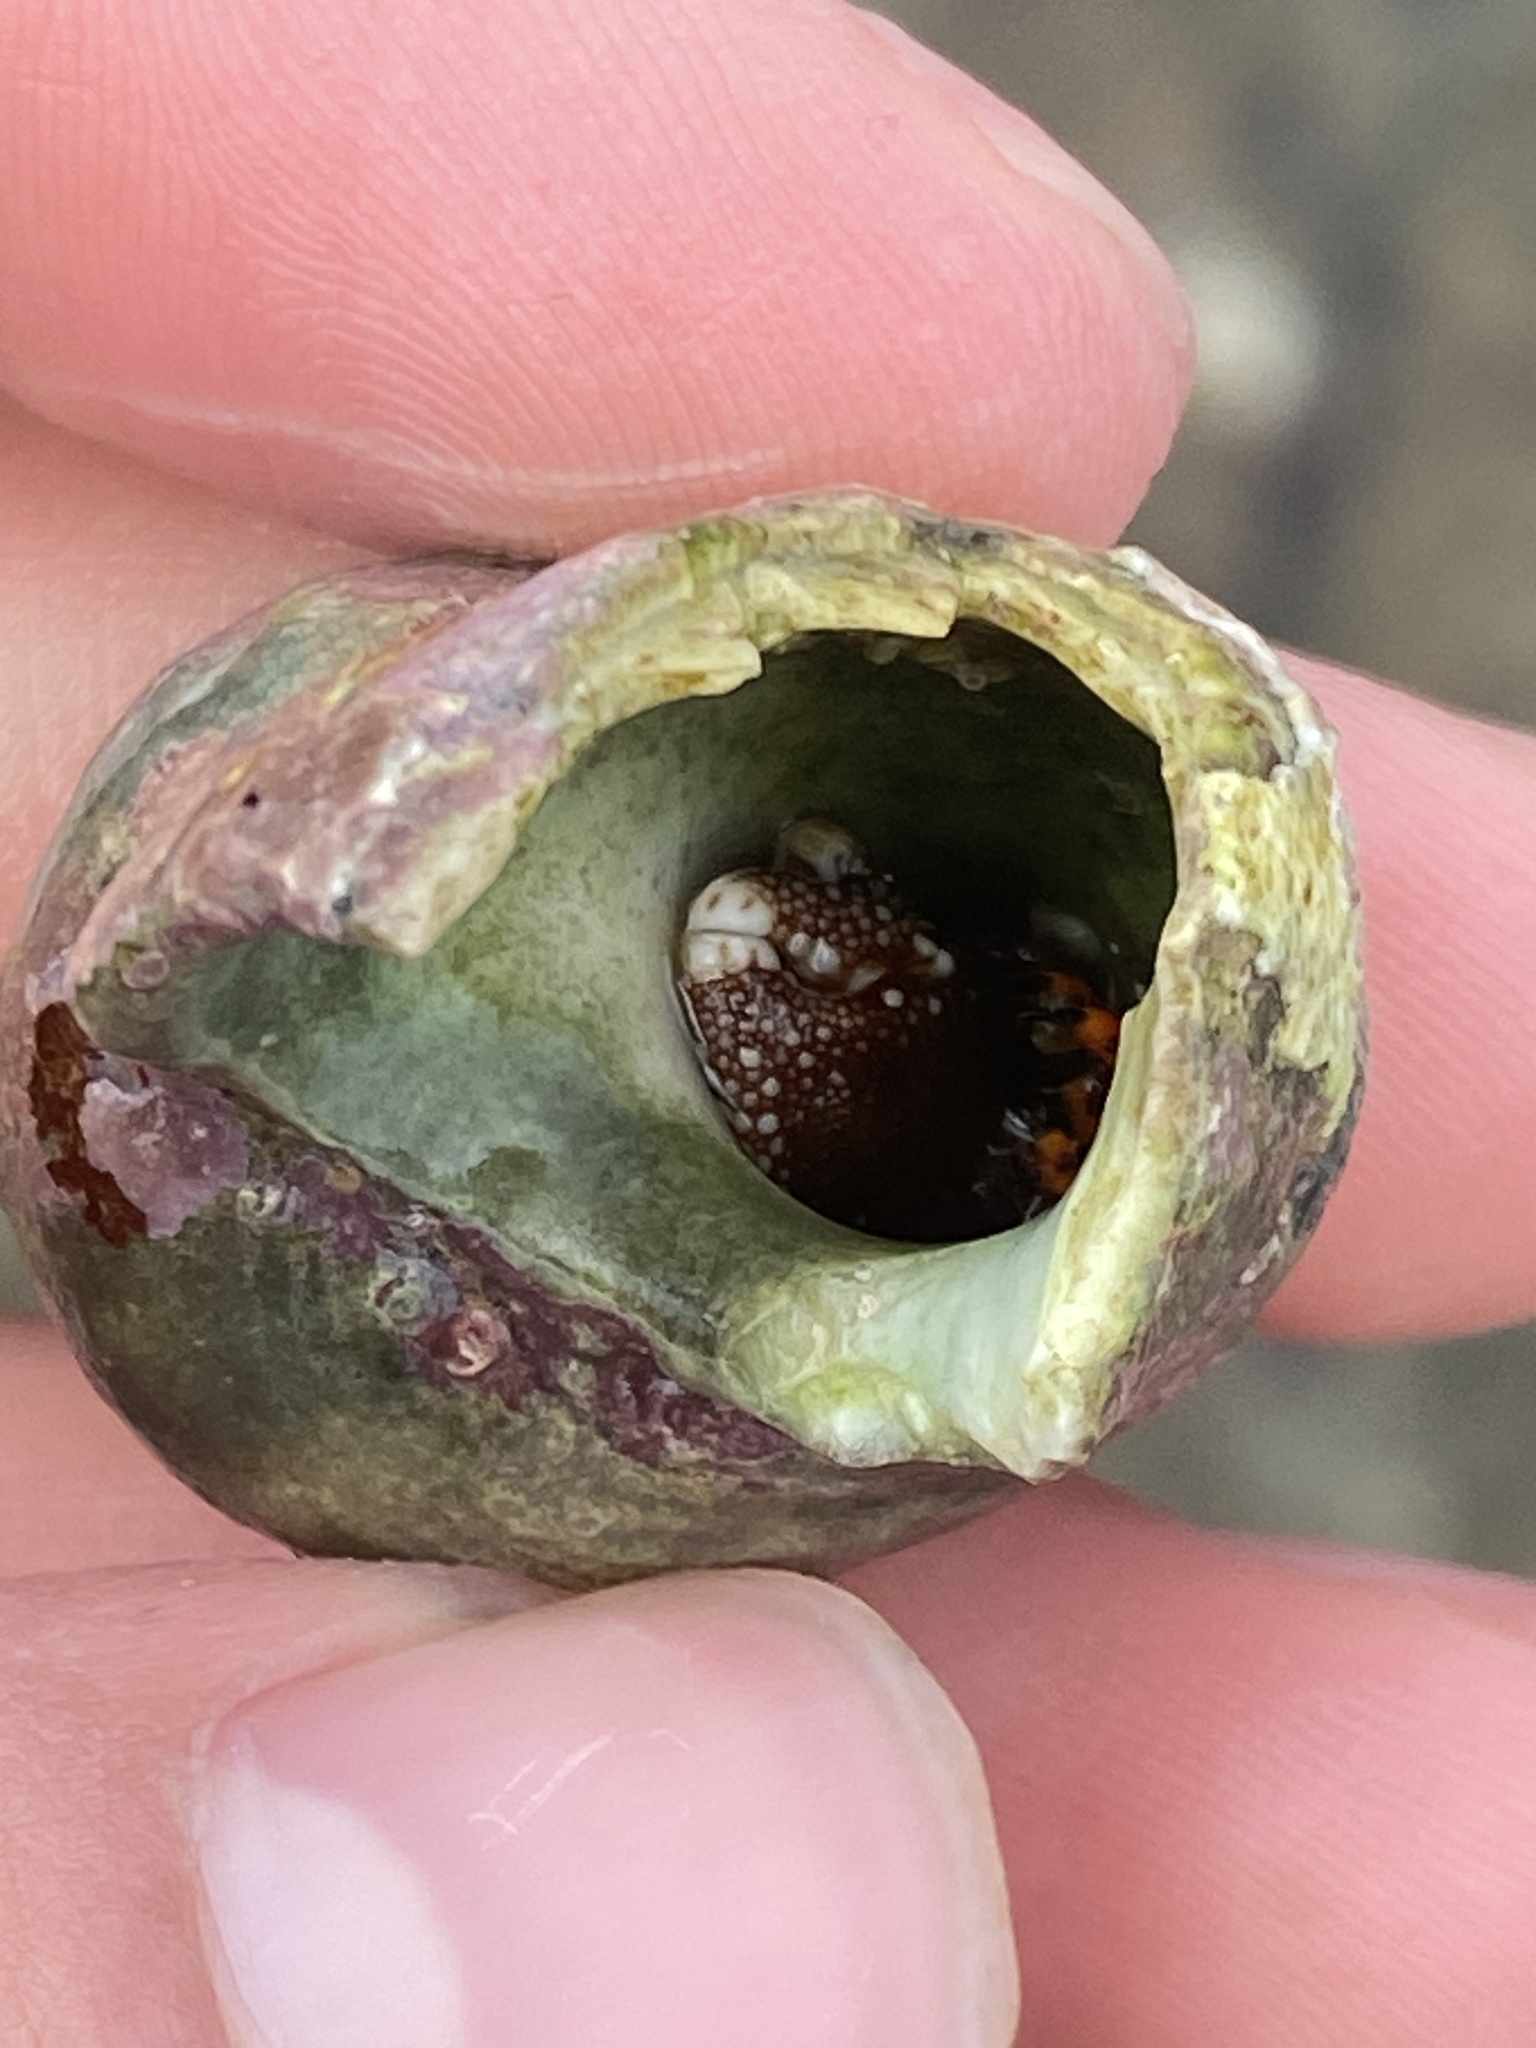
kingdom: Animalia
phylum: Arthropoda
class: Malacostraca
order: Decapoda
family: Diogenidae
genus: Calcinus
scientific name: Calcinus pictus
